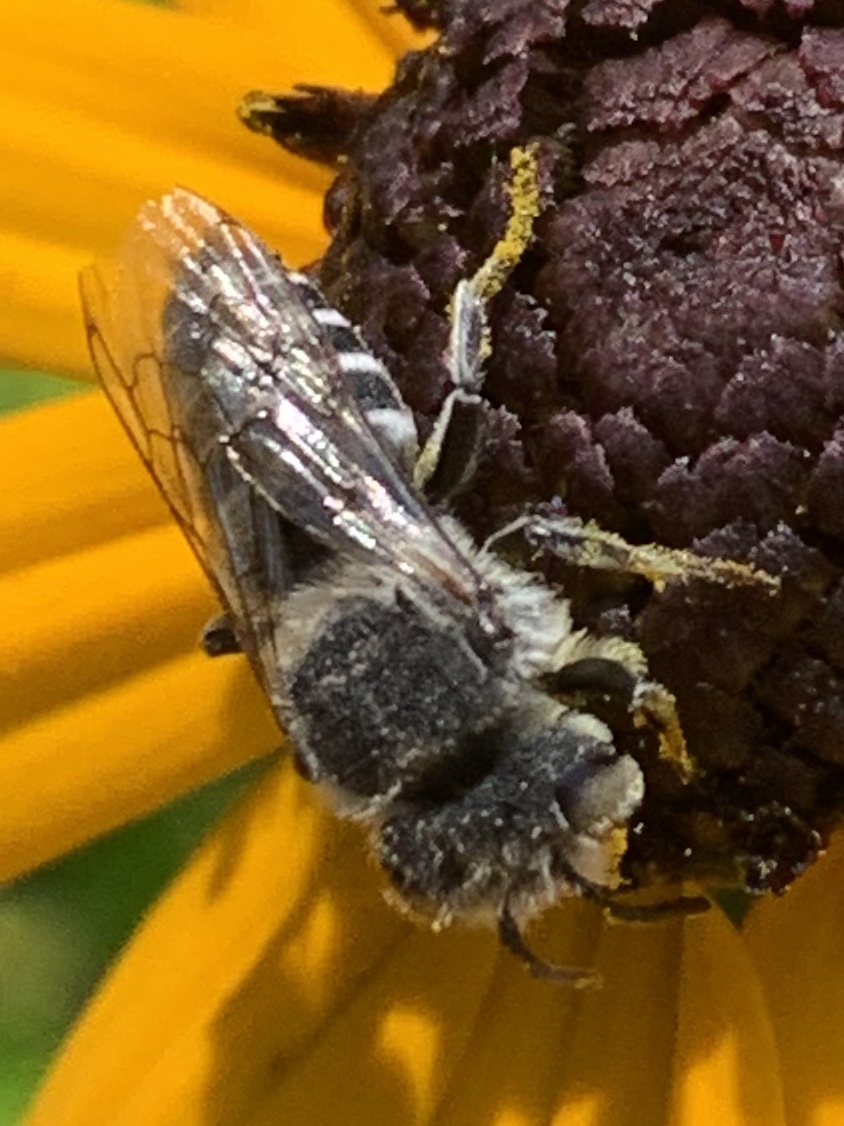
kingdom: Animalia
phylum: Arthropoda
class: Insecta
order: Hymenoptera
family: Megachilidae
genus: Coelioxys
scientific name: Coelioxys rufitarsis
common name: Red-footed sharptail
